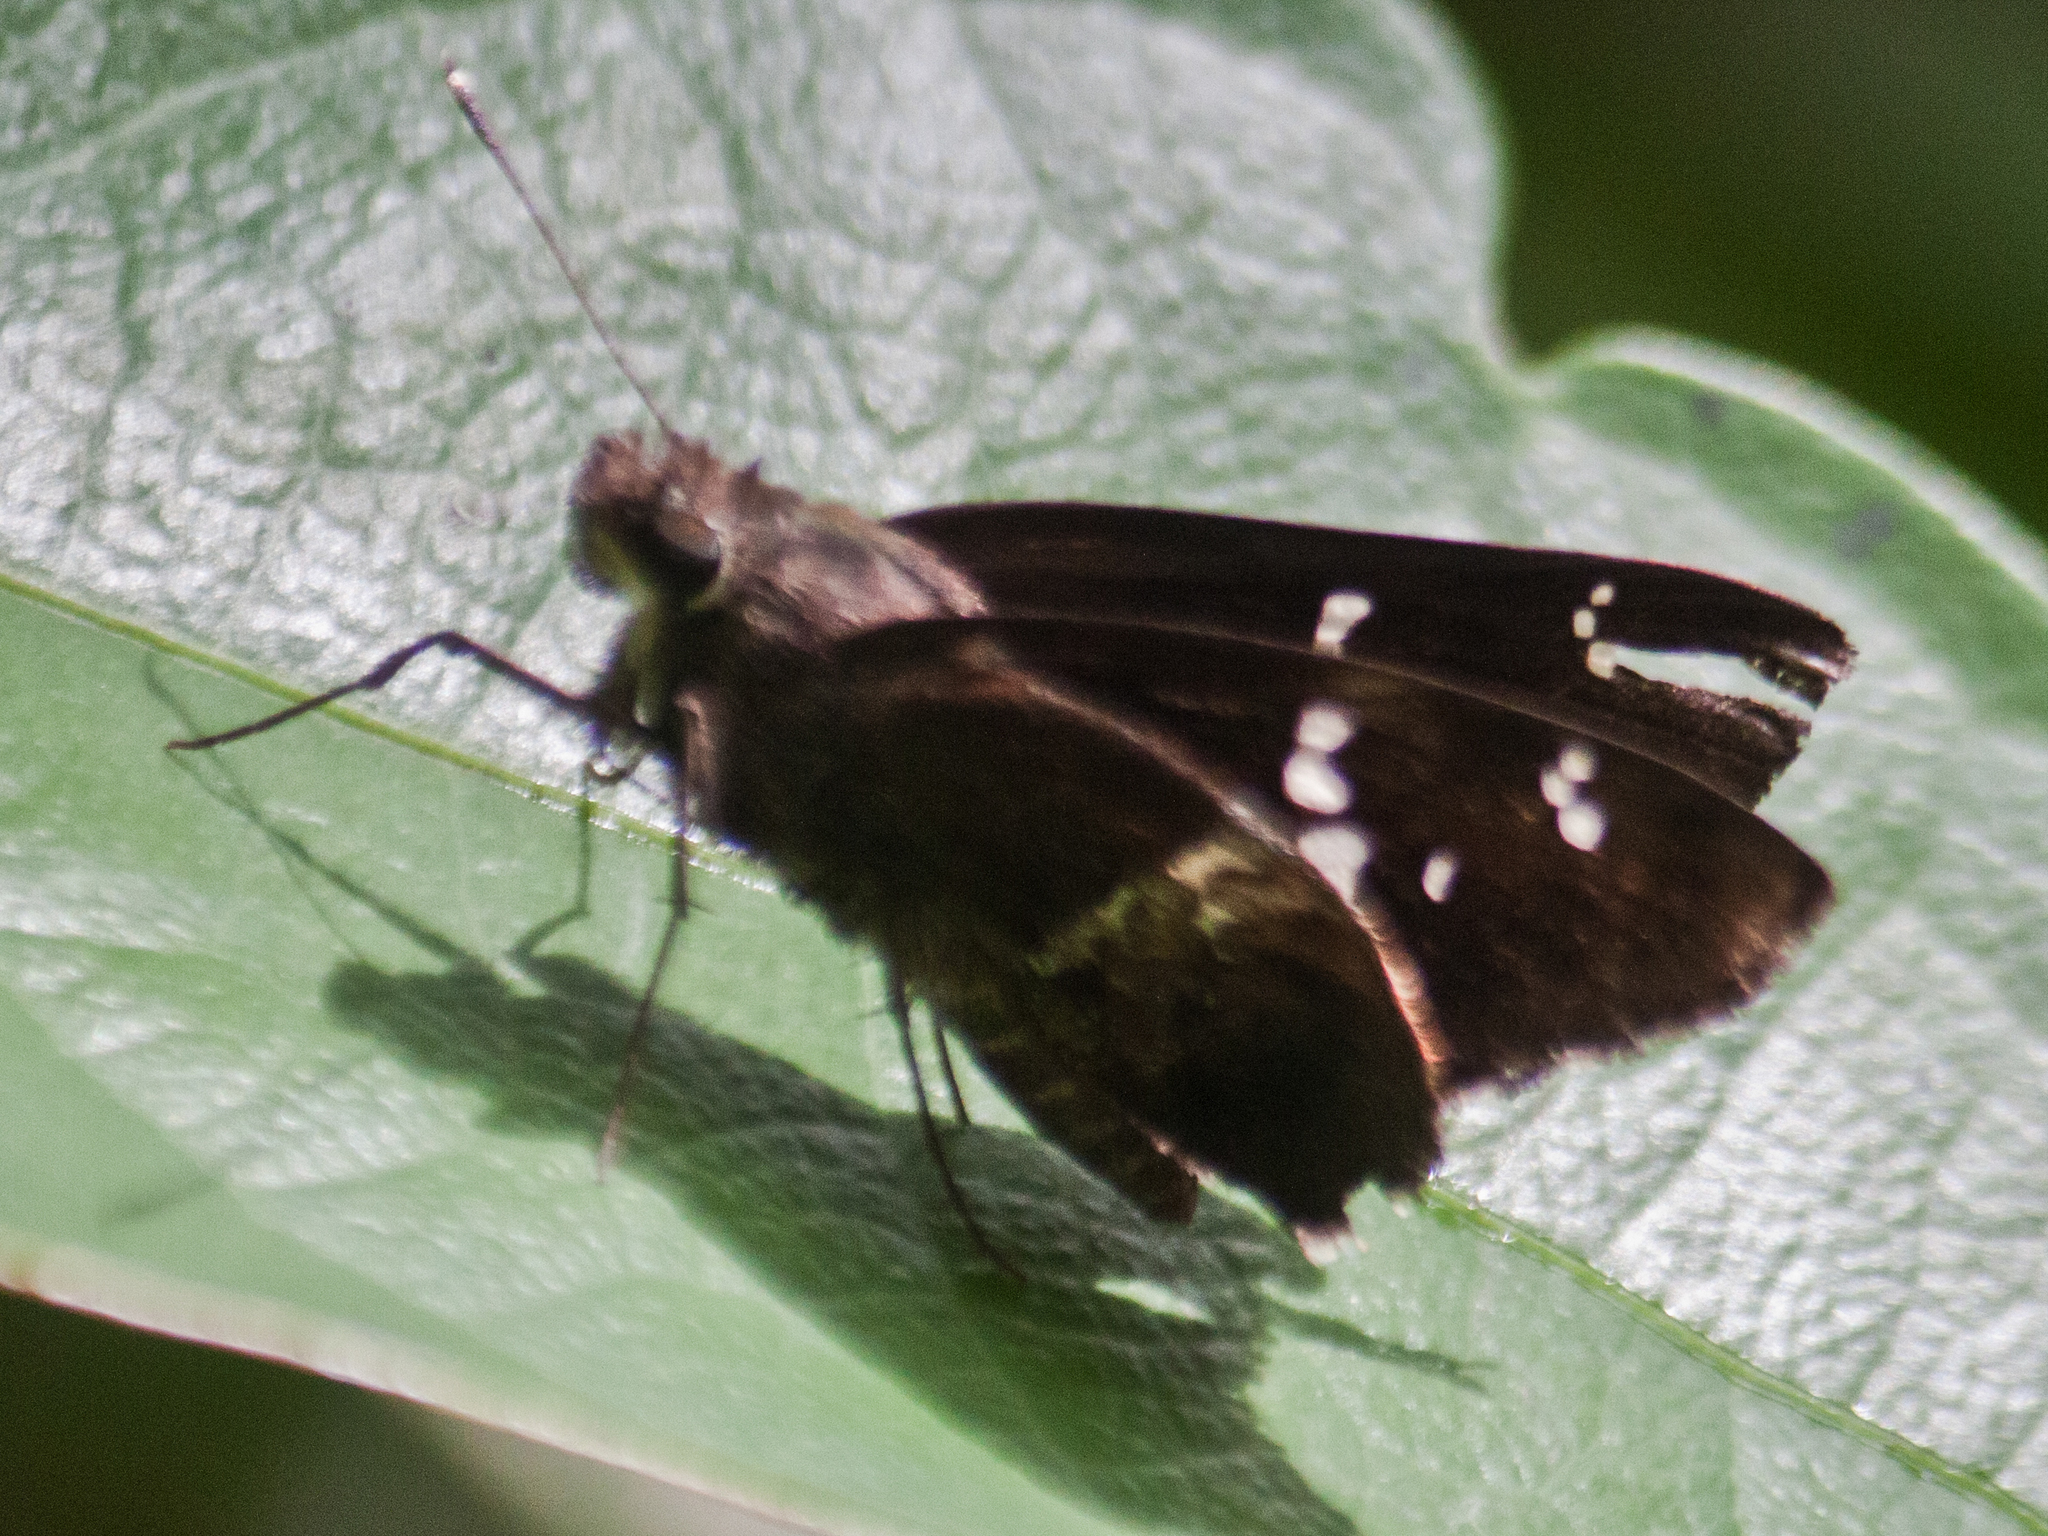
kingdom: Animalia
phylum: Arthropoda
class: Insecta
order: Lepidoptera
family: Hesperiidae
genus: Hyarotis
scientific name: Hyarotis adrastus
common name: Tree flitter
